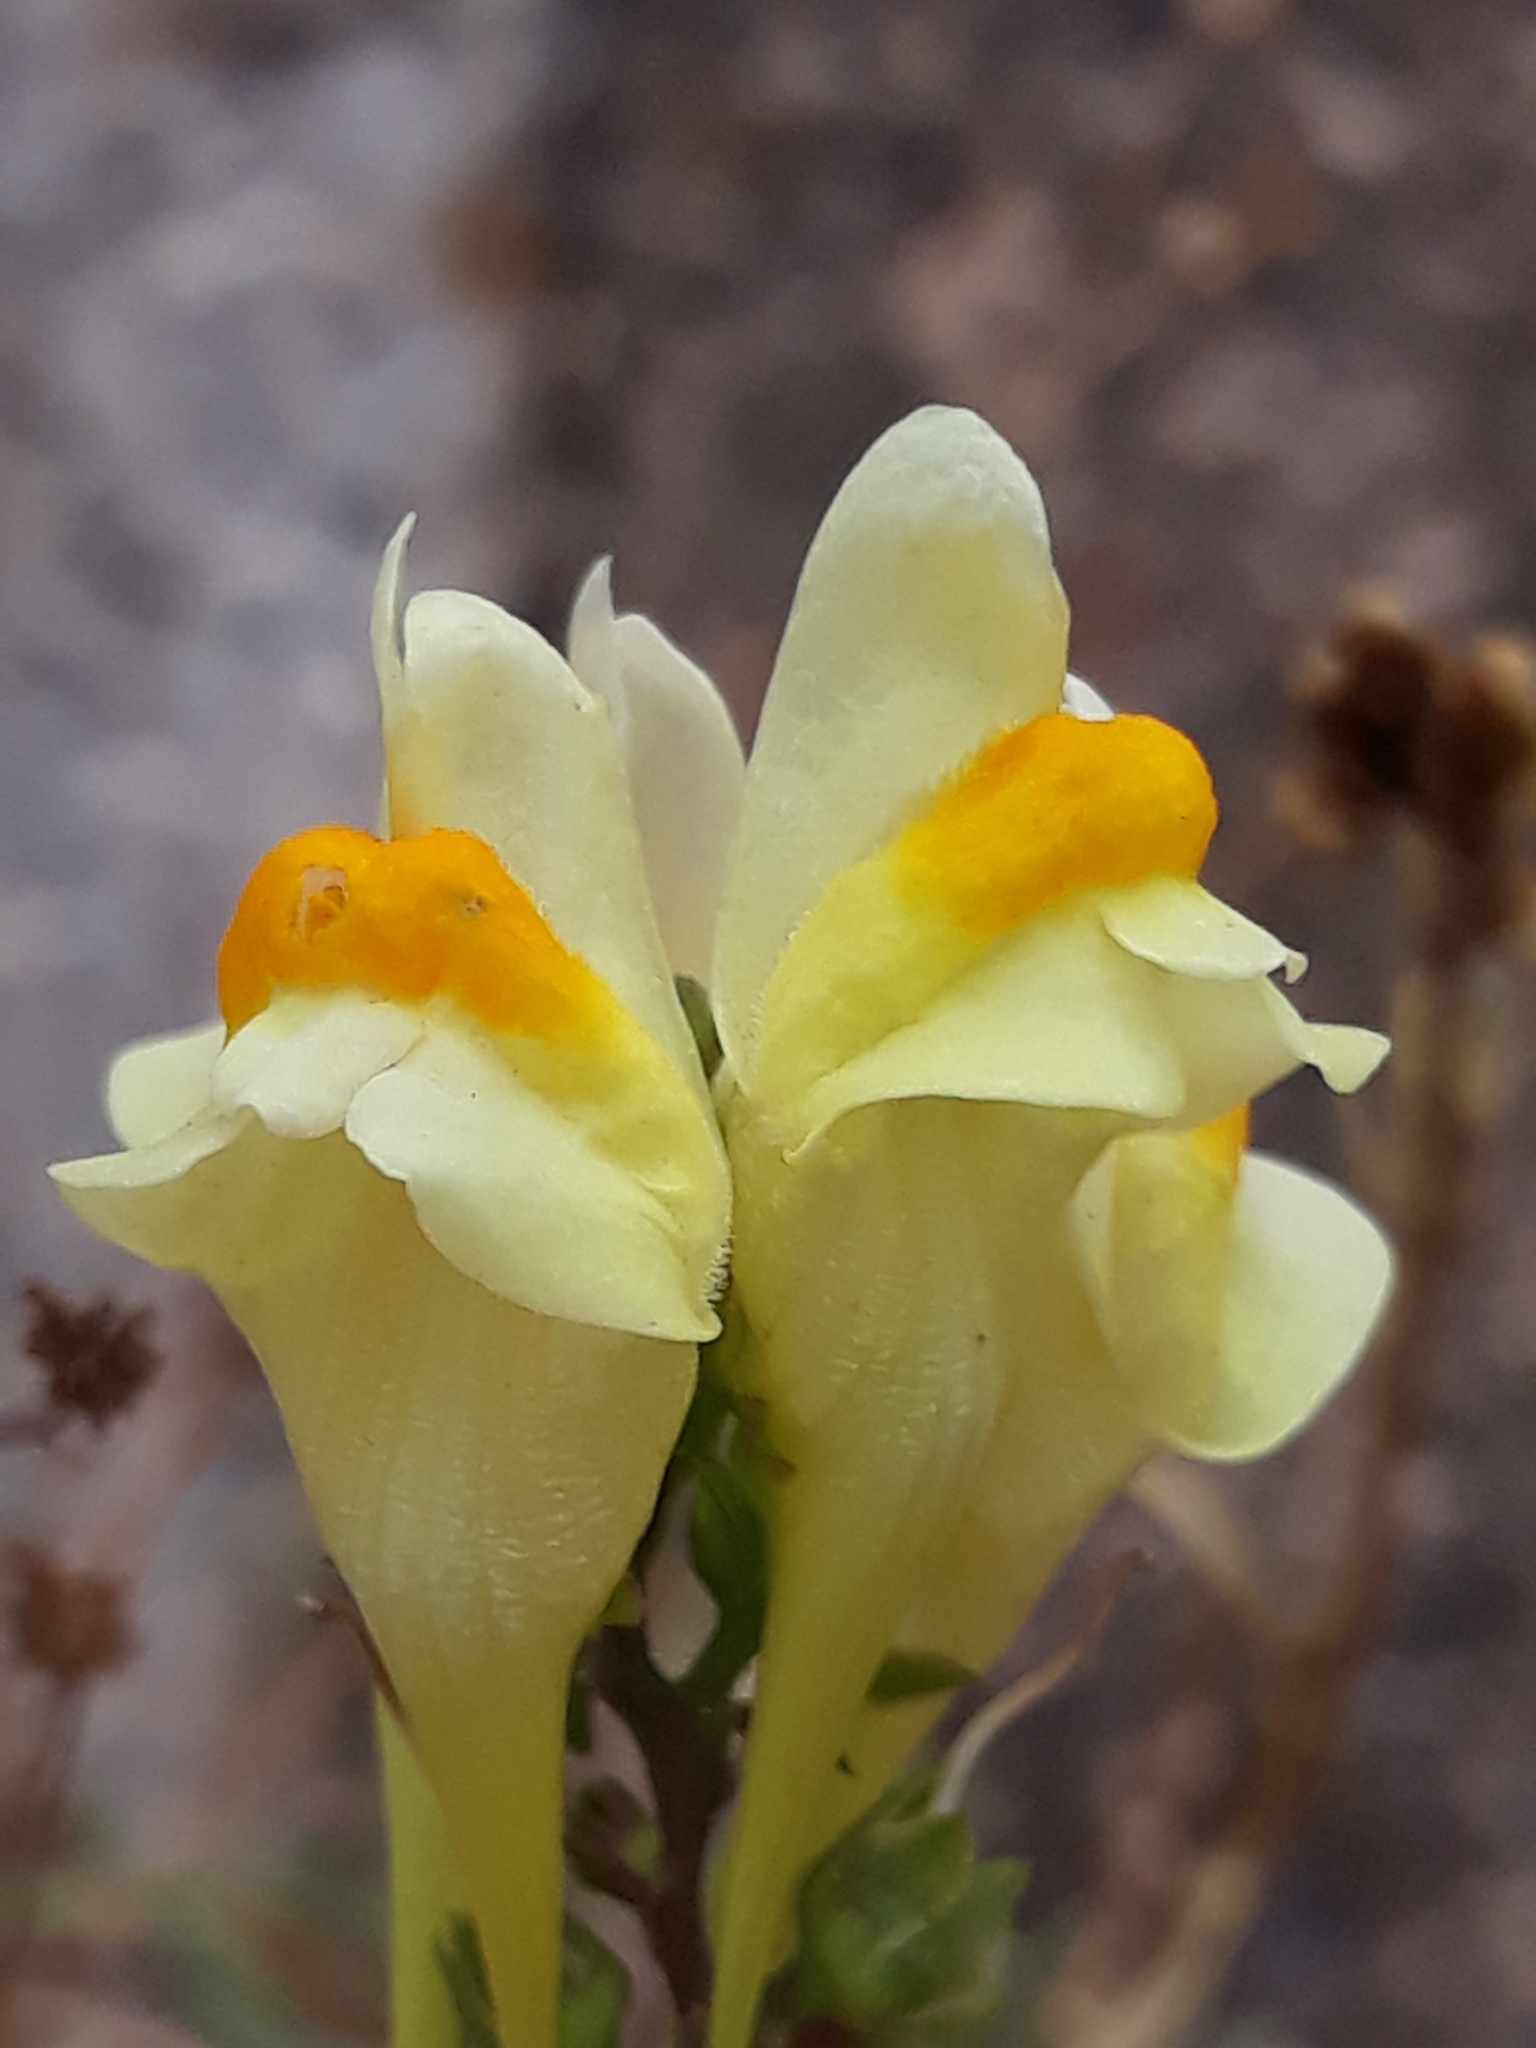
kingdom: Plantae
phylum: Tracheophyta
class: Magnoliopsida
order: Lamiales
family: Plantaginaceae
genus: Linaria
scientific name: Linaria vulgaris
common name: Butter and eggs
